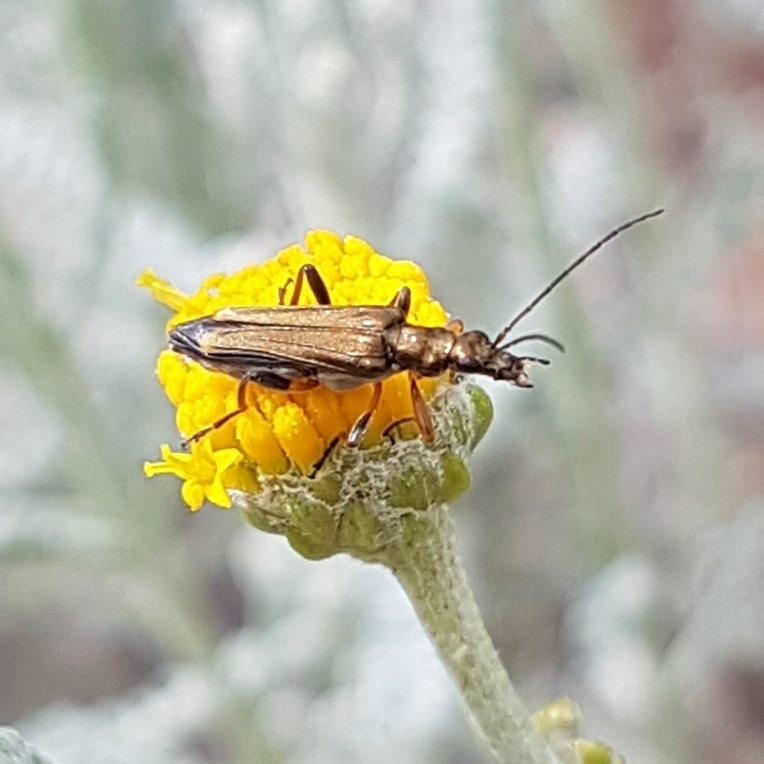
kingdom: Animalia
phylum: Arthropoda
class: Insecta
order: Coleoptera
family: Oedemeridae
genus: Oedemera
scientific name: Oedemera barbara
